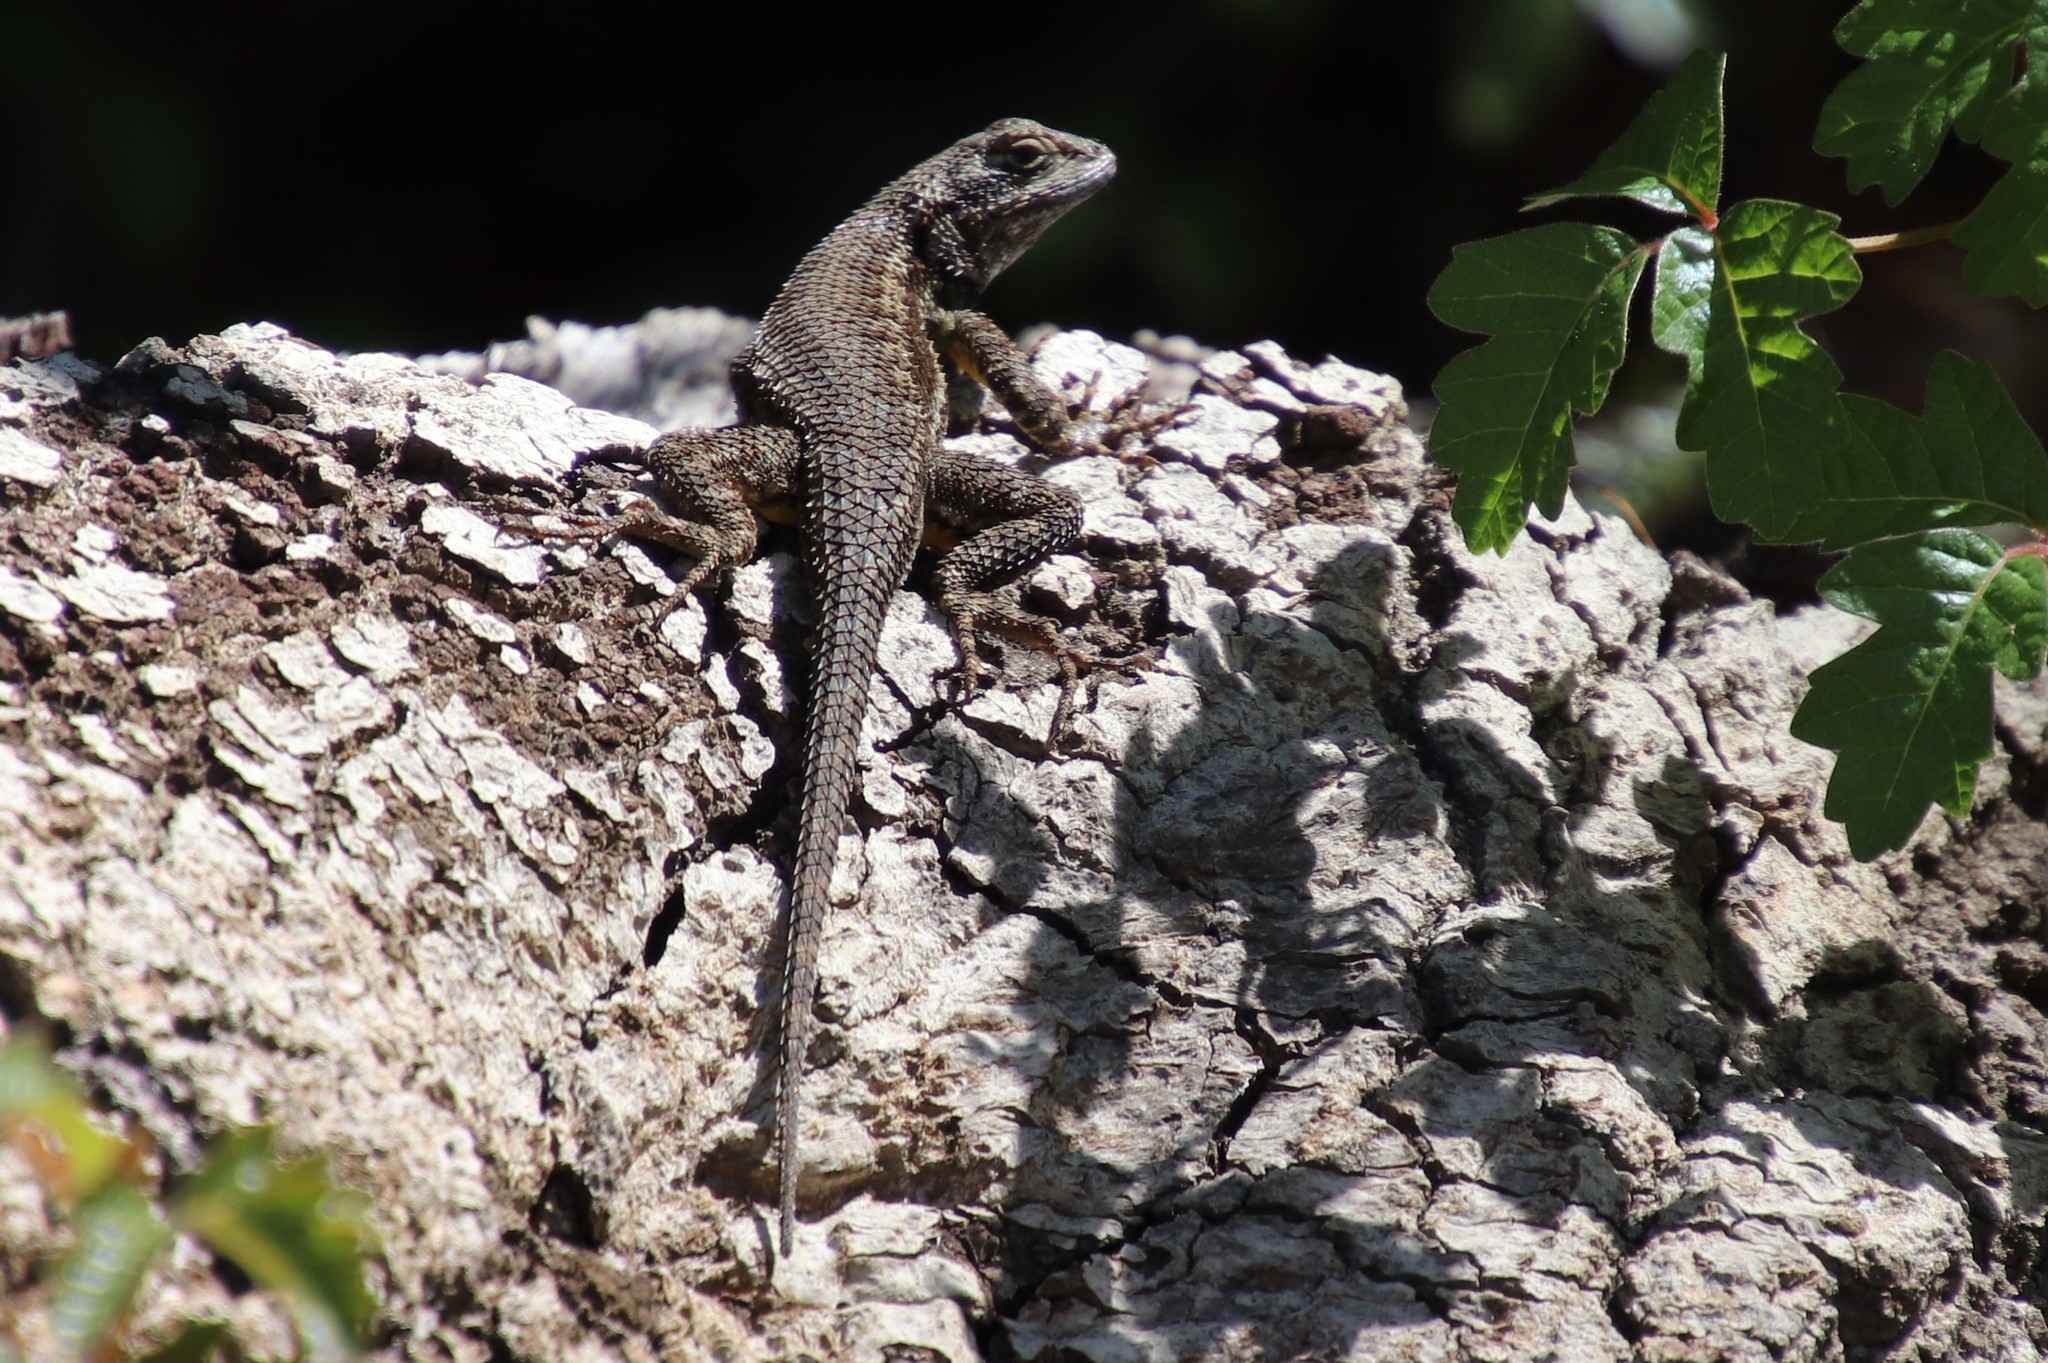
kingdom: Animalia
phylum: Chordata
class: Squamata
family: Phrynosomatidae
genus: Sceloporus
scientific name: Sceloporus occidentalis
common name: Western fence lizard
